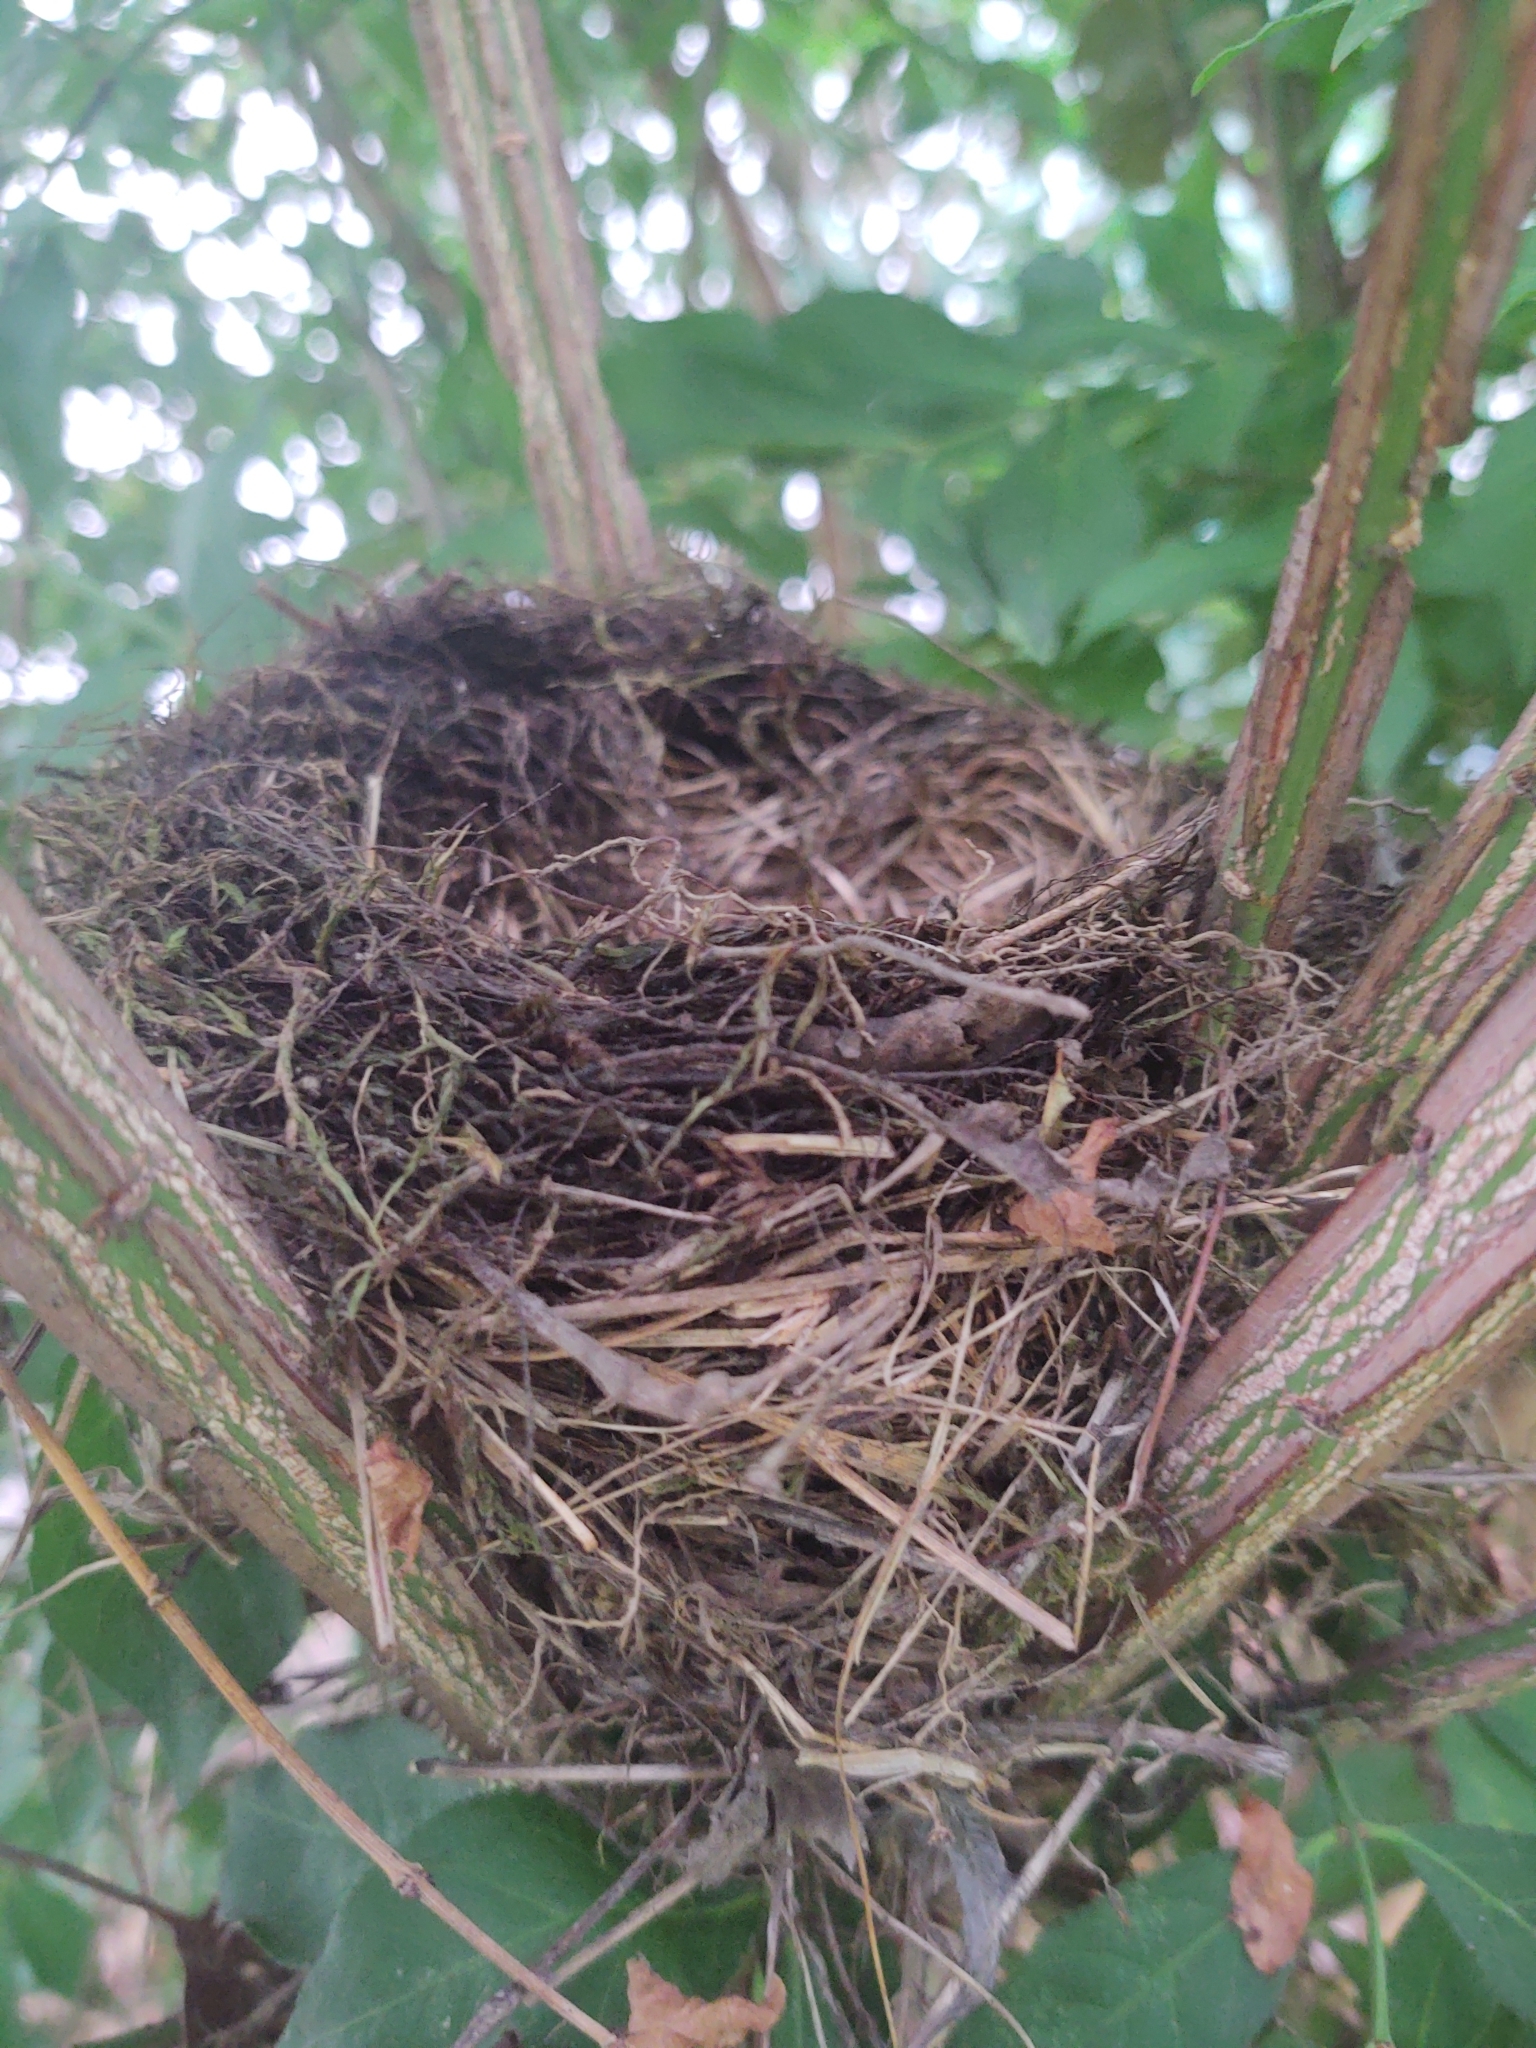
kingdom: Animalia
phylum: Chordata
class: Aves
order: Passeriformes
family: Turdidae
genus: Turdus
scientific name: Turdus migratorius
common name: American robin
